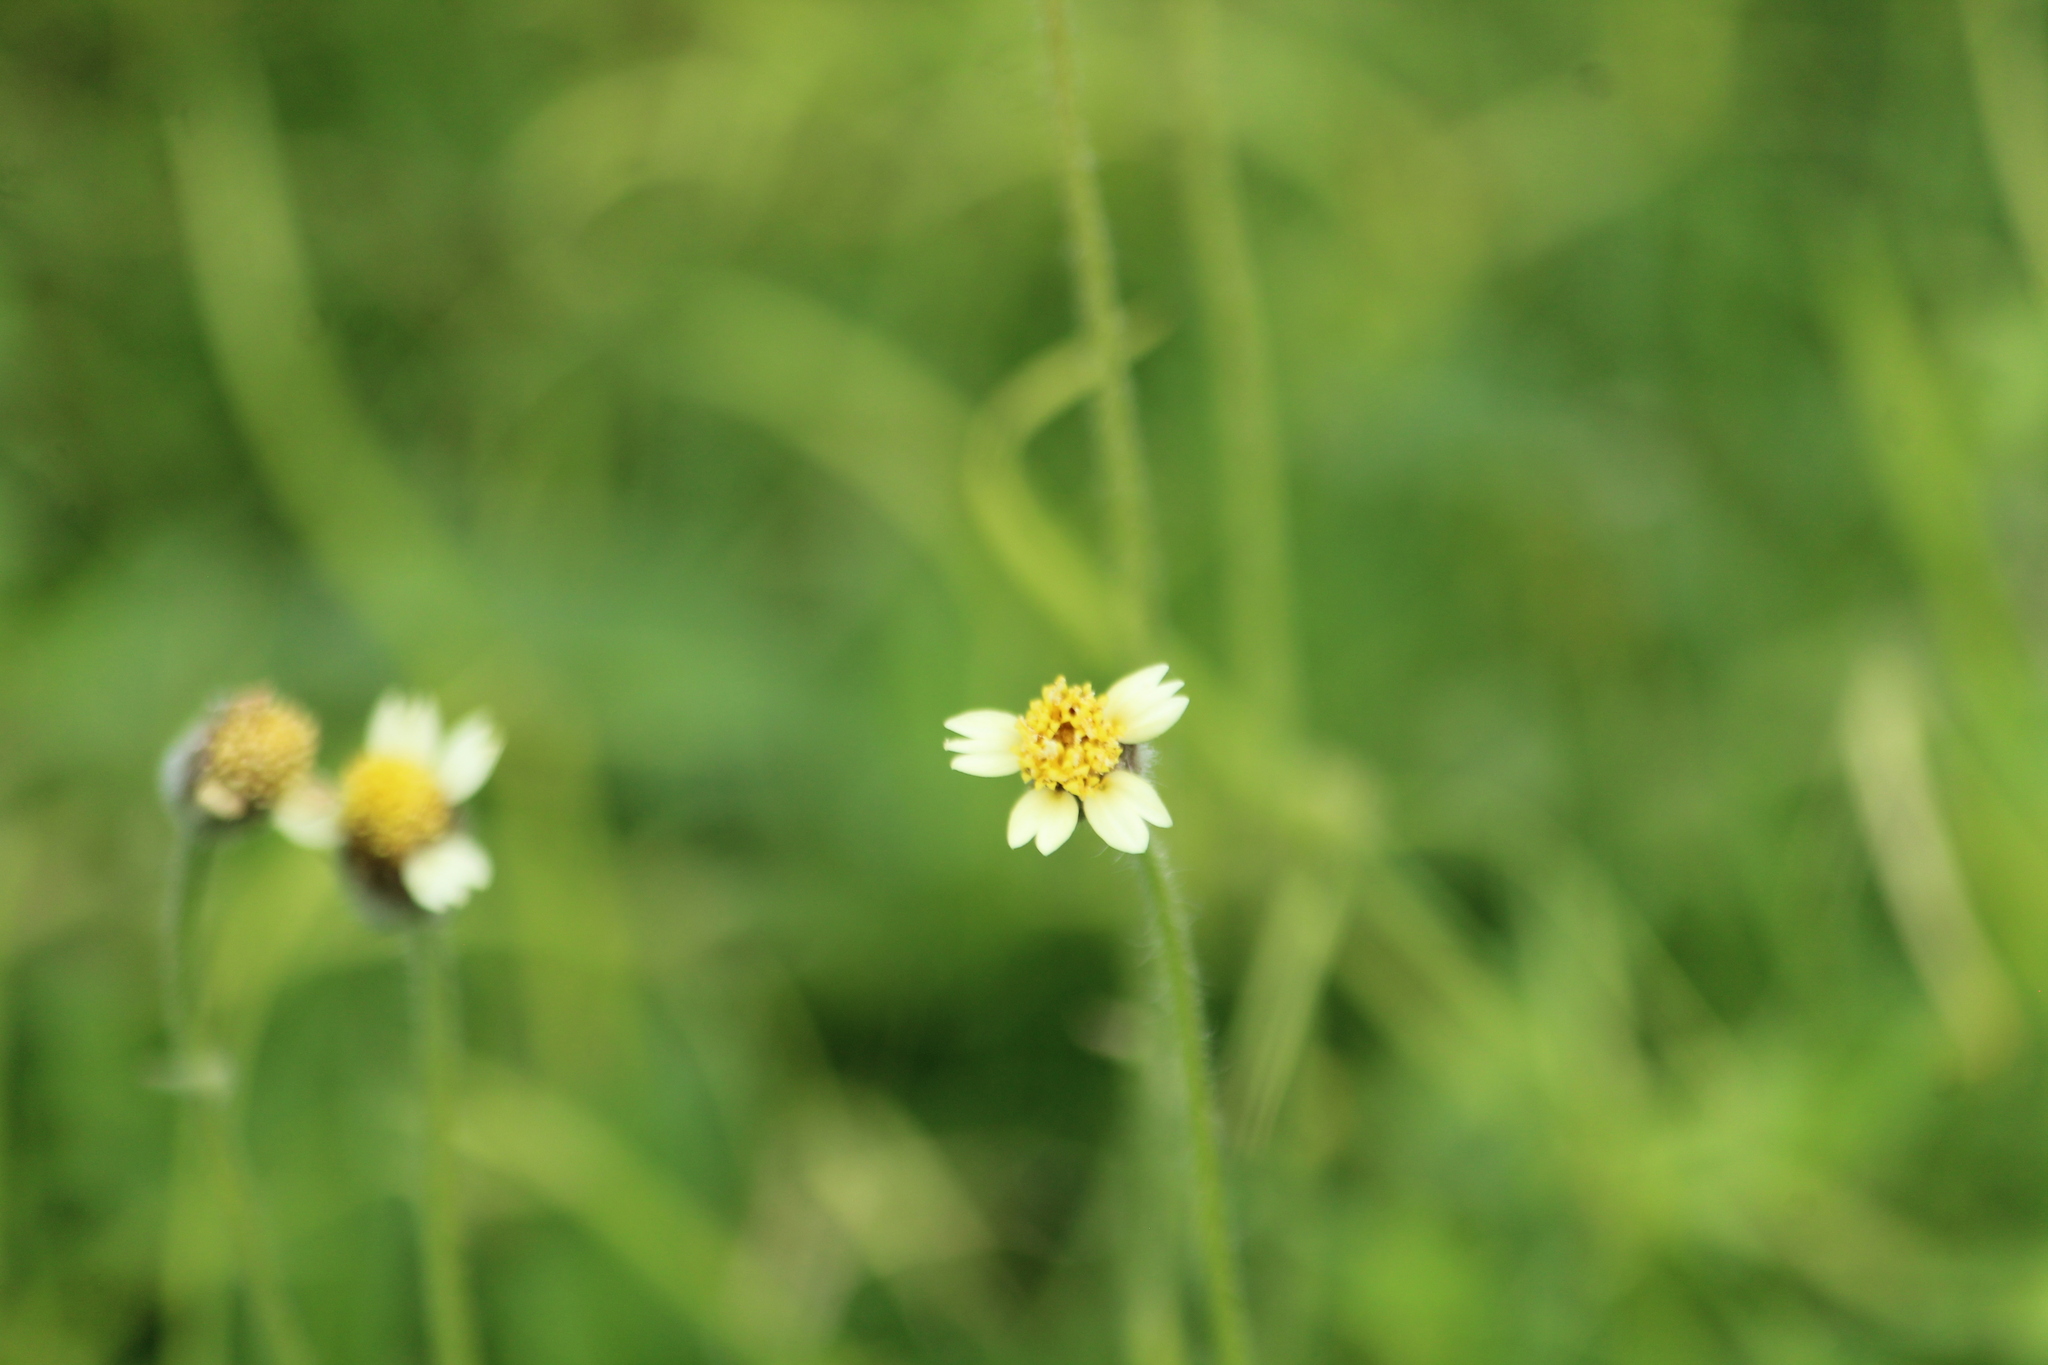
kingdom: Plantae
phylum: Tracheophyta
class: Magnoliopsida
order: Asterales
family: Asteraceae
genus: Tridax
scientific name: Tridax procumbens
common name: Coatbuttons
